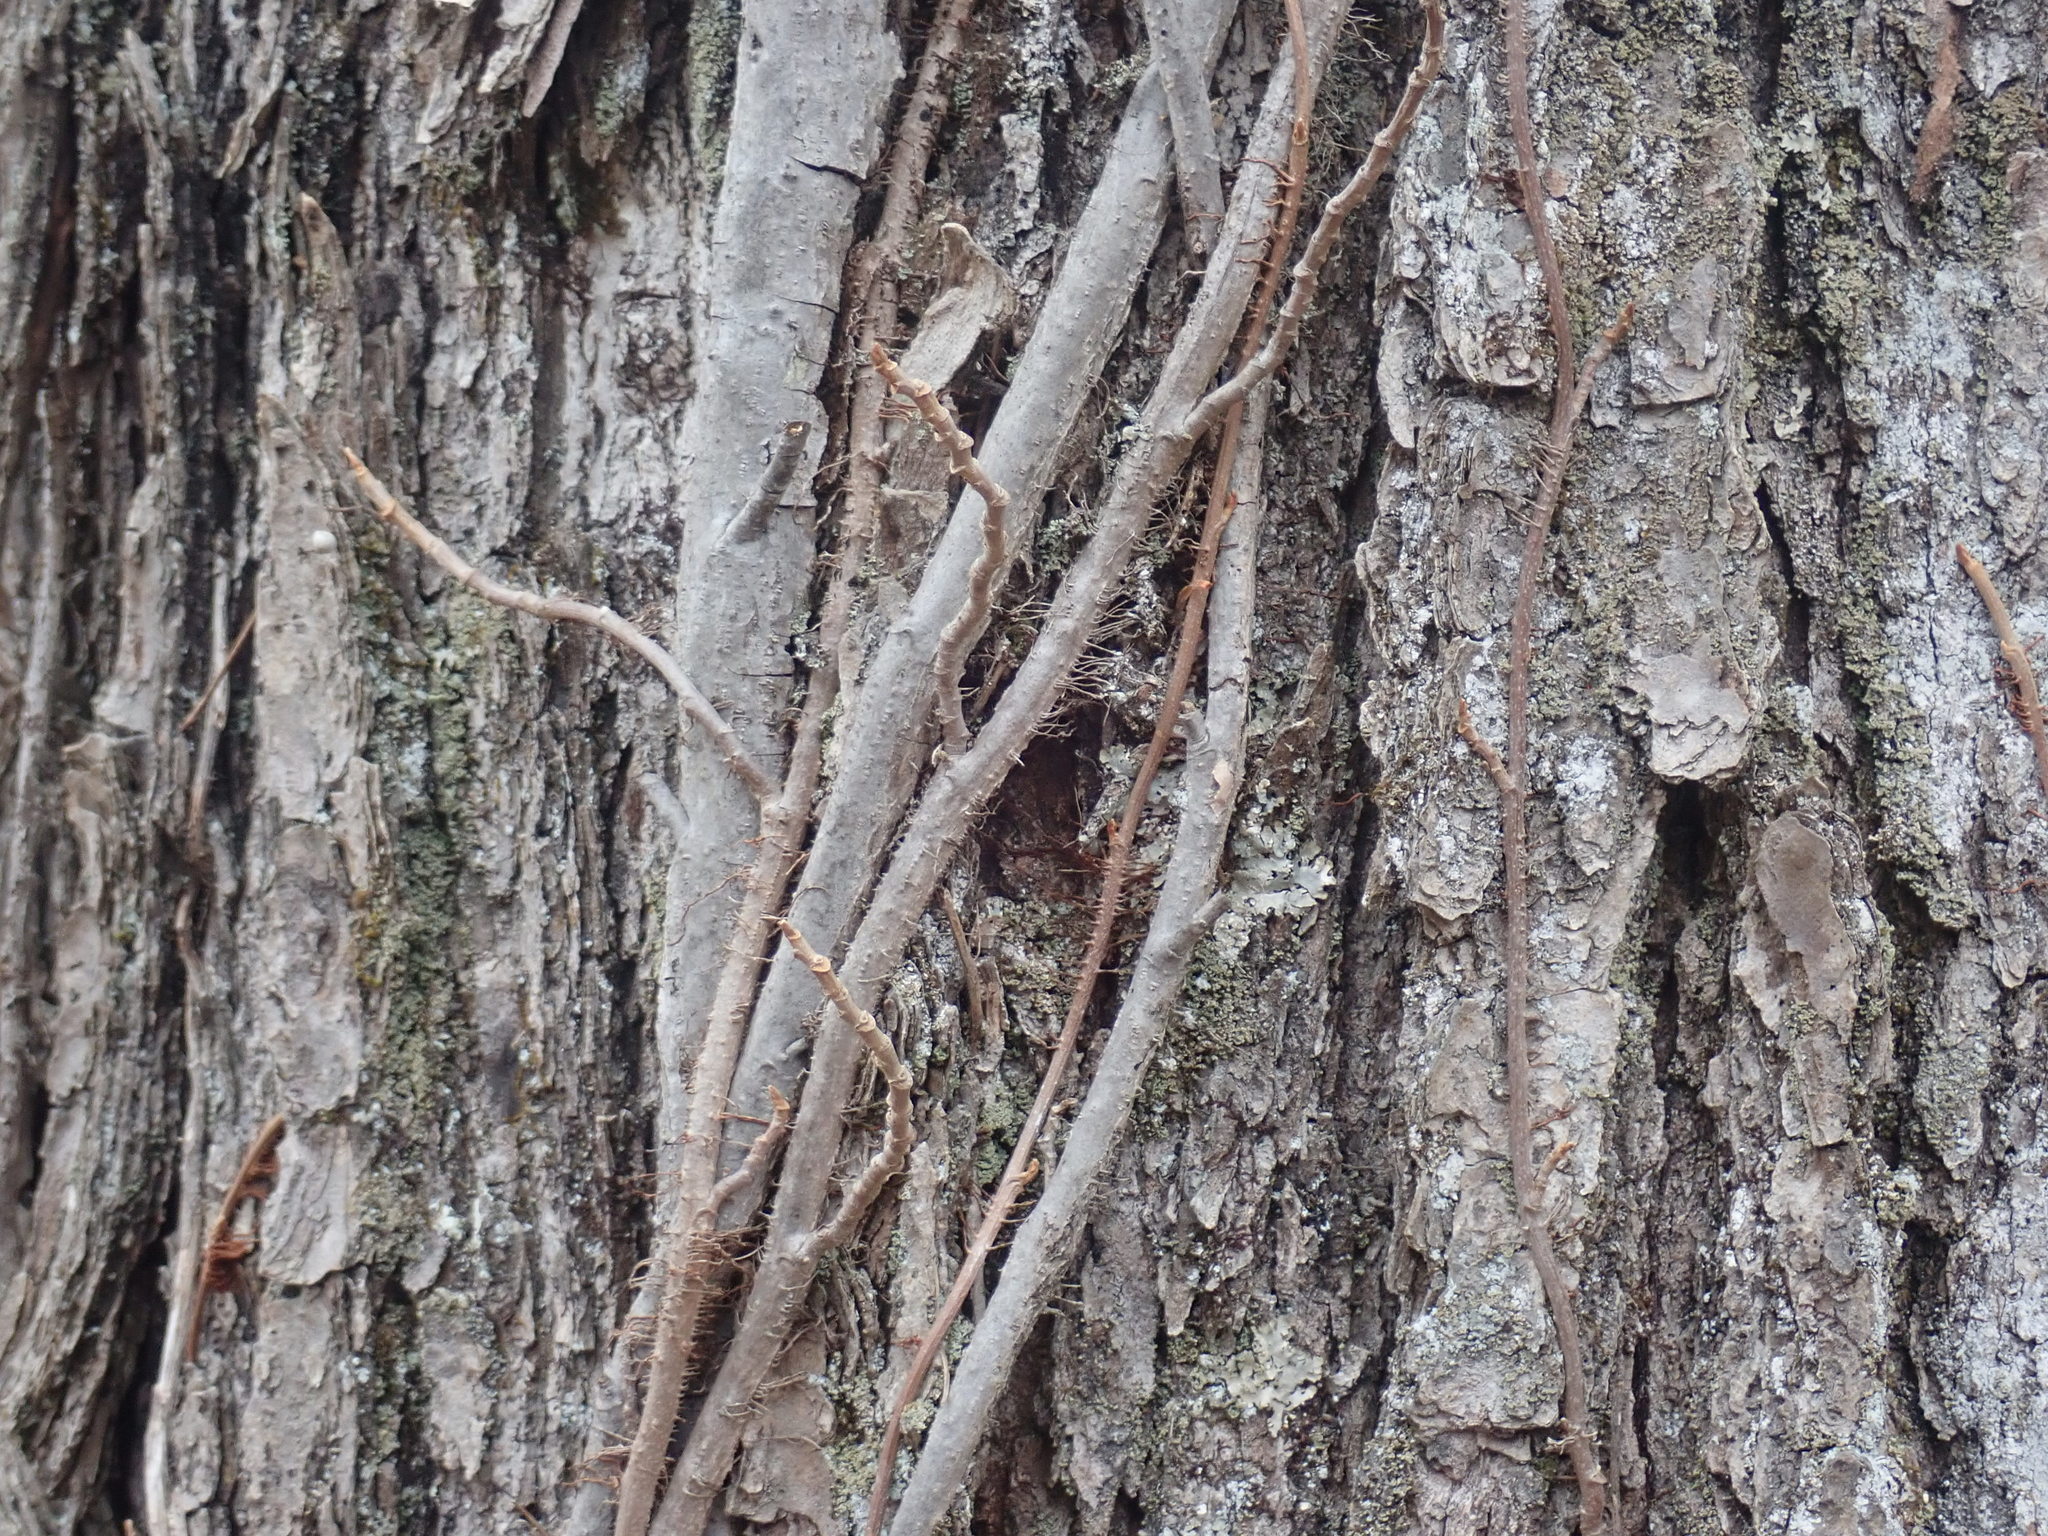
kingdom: Plantae
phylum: Tracheophyta
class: Magnoliopsida
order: Sapindales
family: Anacardiaceae
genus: Toxicodendron
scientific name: Toxicodendron radicans
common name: Poison ivy
